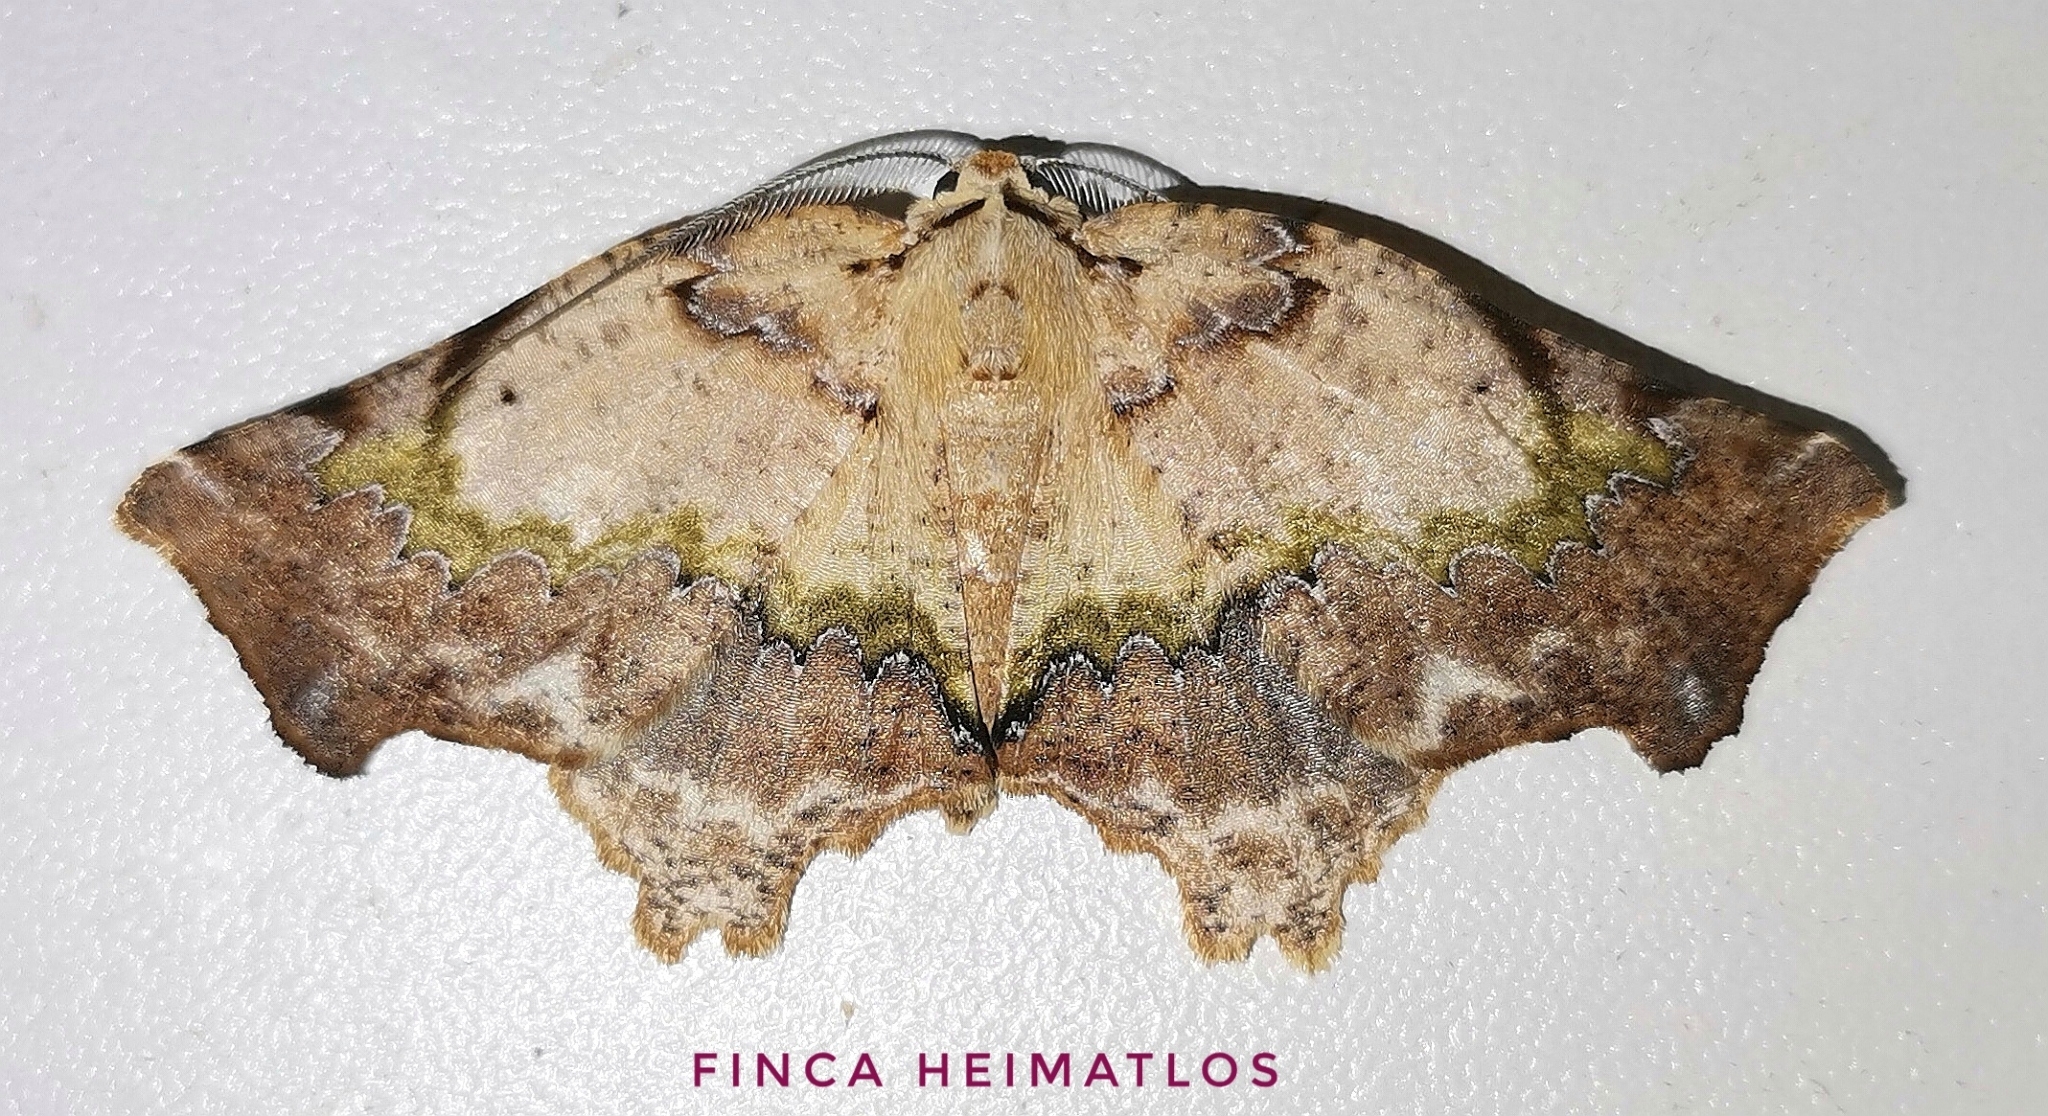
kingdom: Animalia
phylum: Arthropoda
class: Insecta
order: Lepidoptera
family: Geometridae
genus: Tmetomorpha
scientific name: Tmetomorpha bitias
